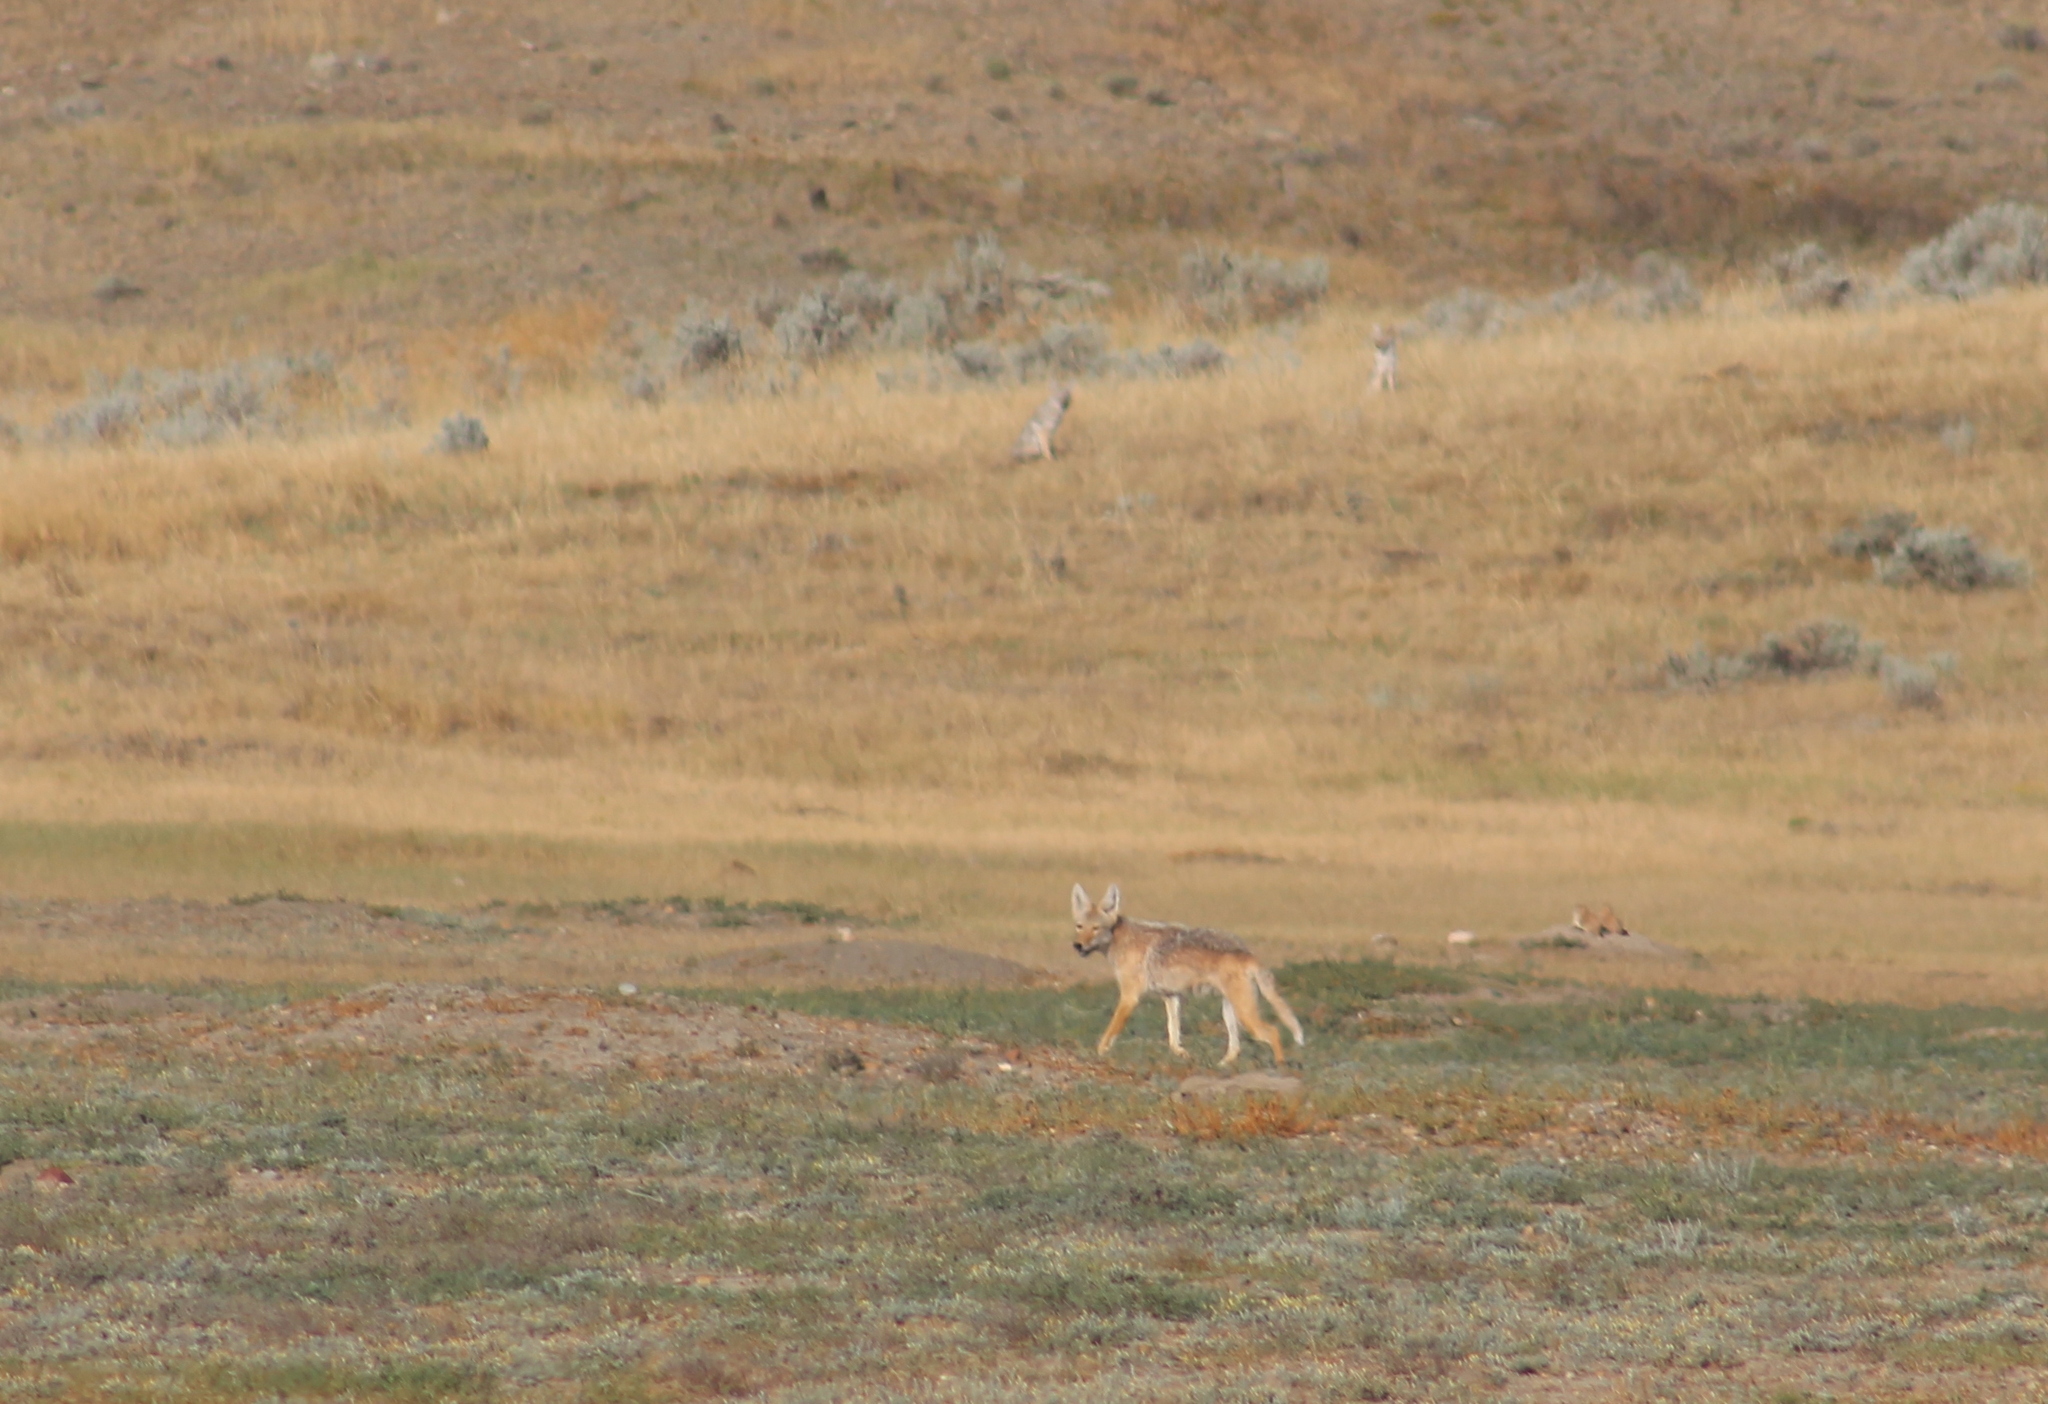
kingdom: Animalia
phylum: Chordata
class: Mammalia
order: Carnivora
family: Canidae
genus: Canis
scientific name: Canis latrans
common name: Coyote
